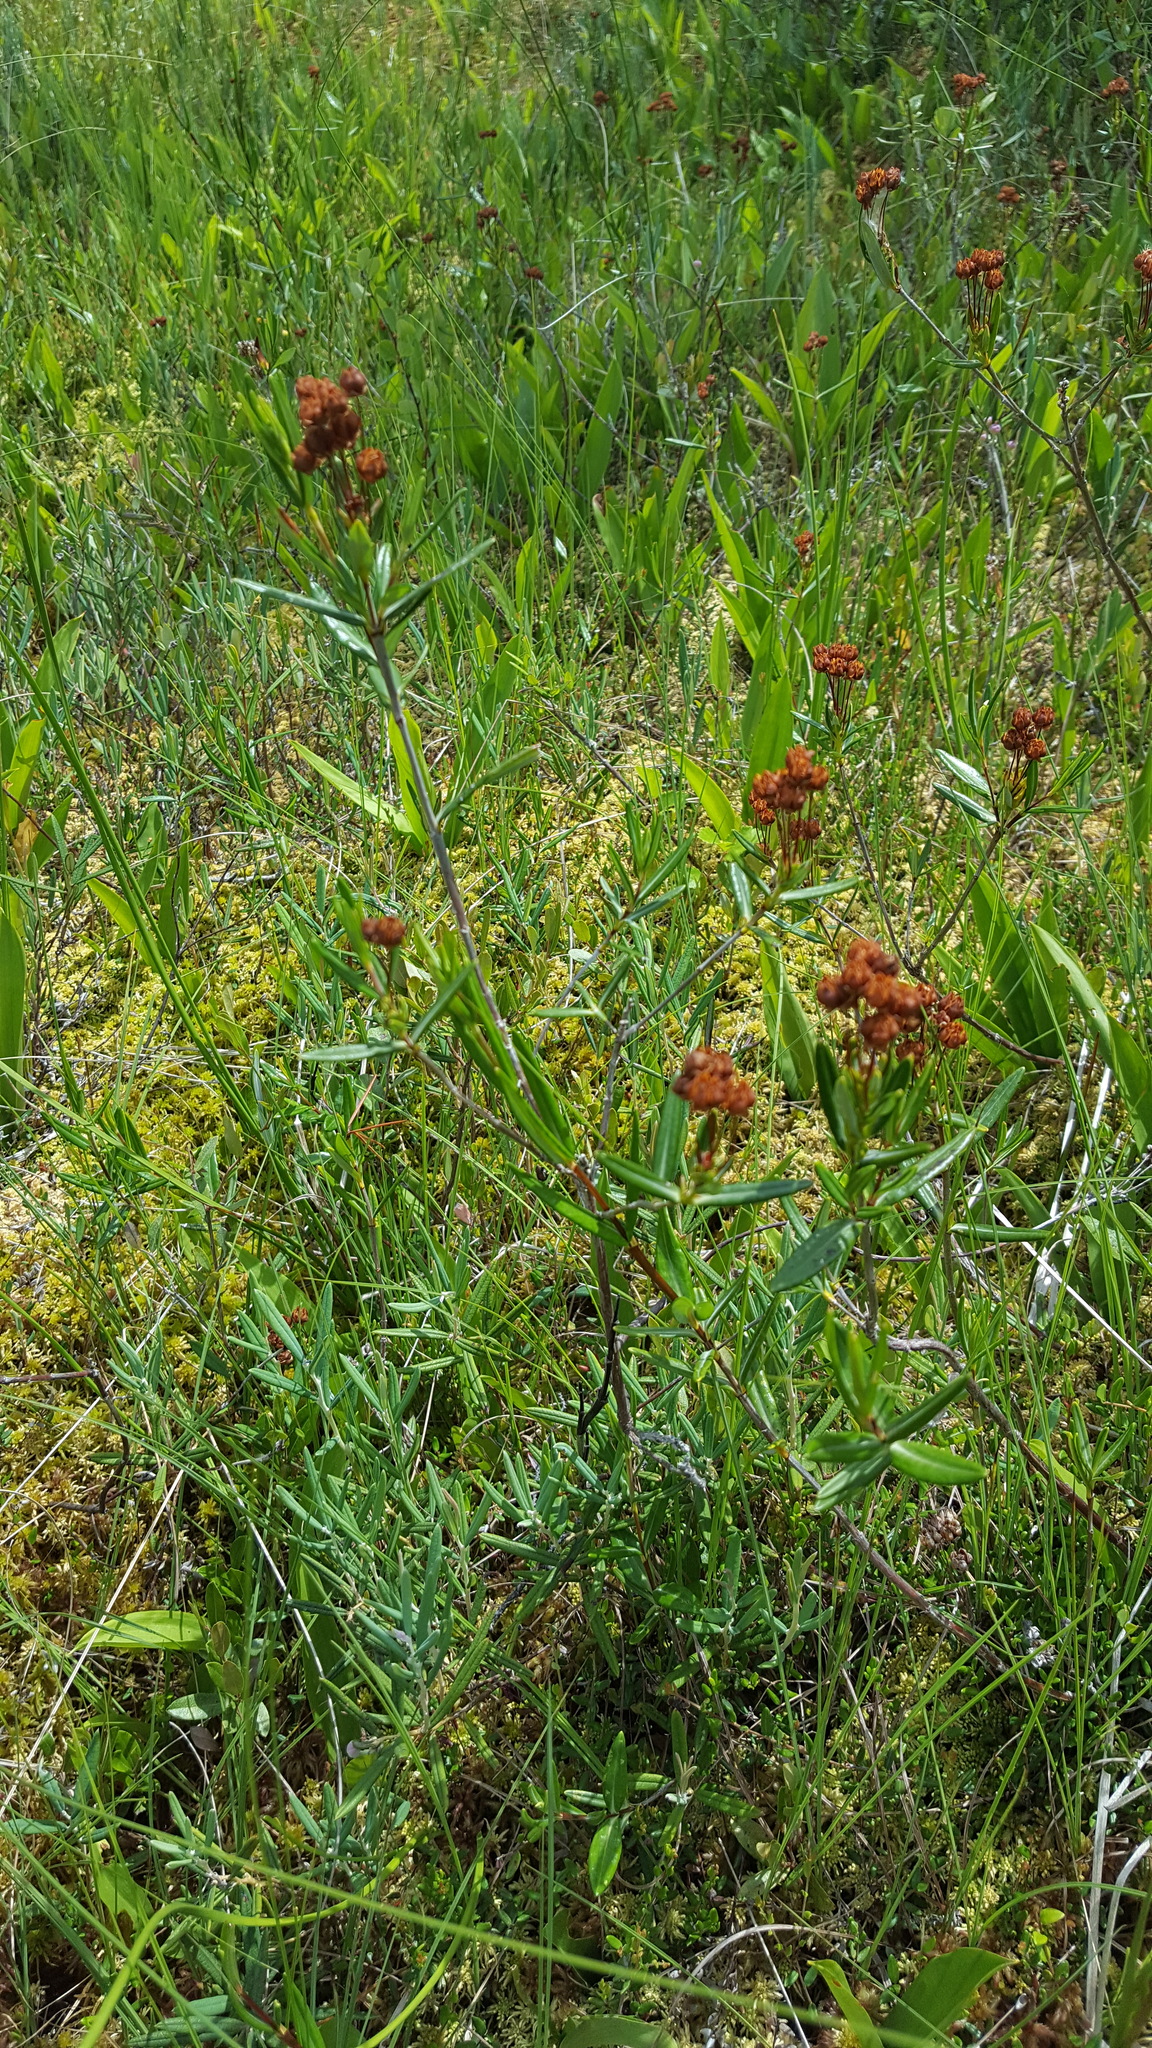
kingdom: Plantae
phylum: Tracheophyta
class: Magnoliopsida
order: Ericales
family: Ericaceae
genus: Kalmia
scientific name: Kalmia polifolia
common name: Bog-laurel
